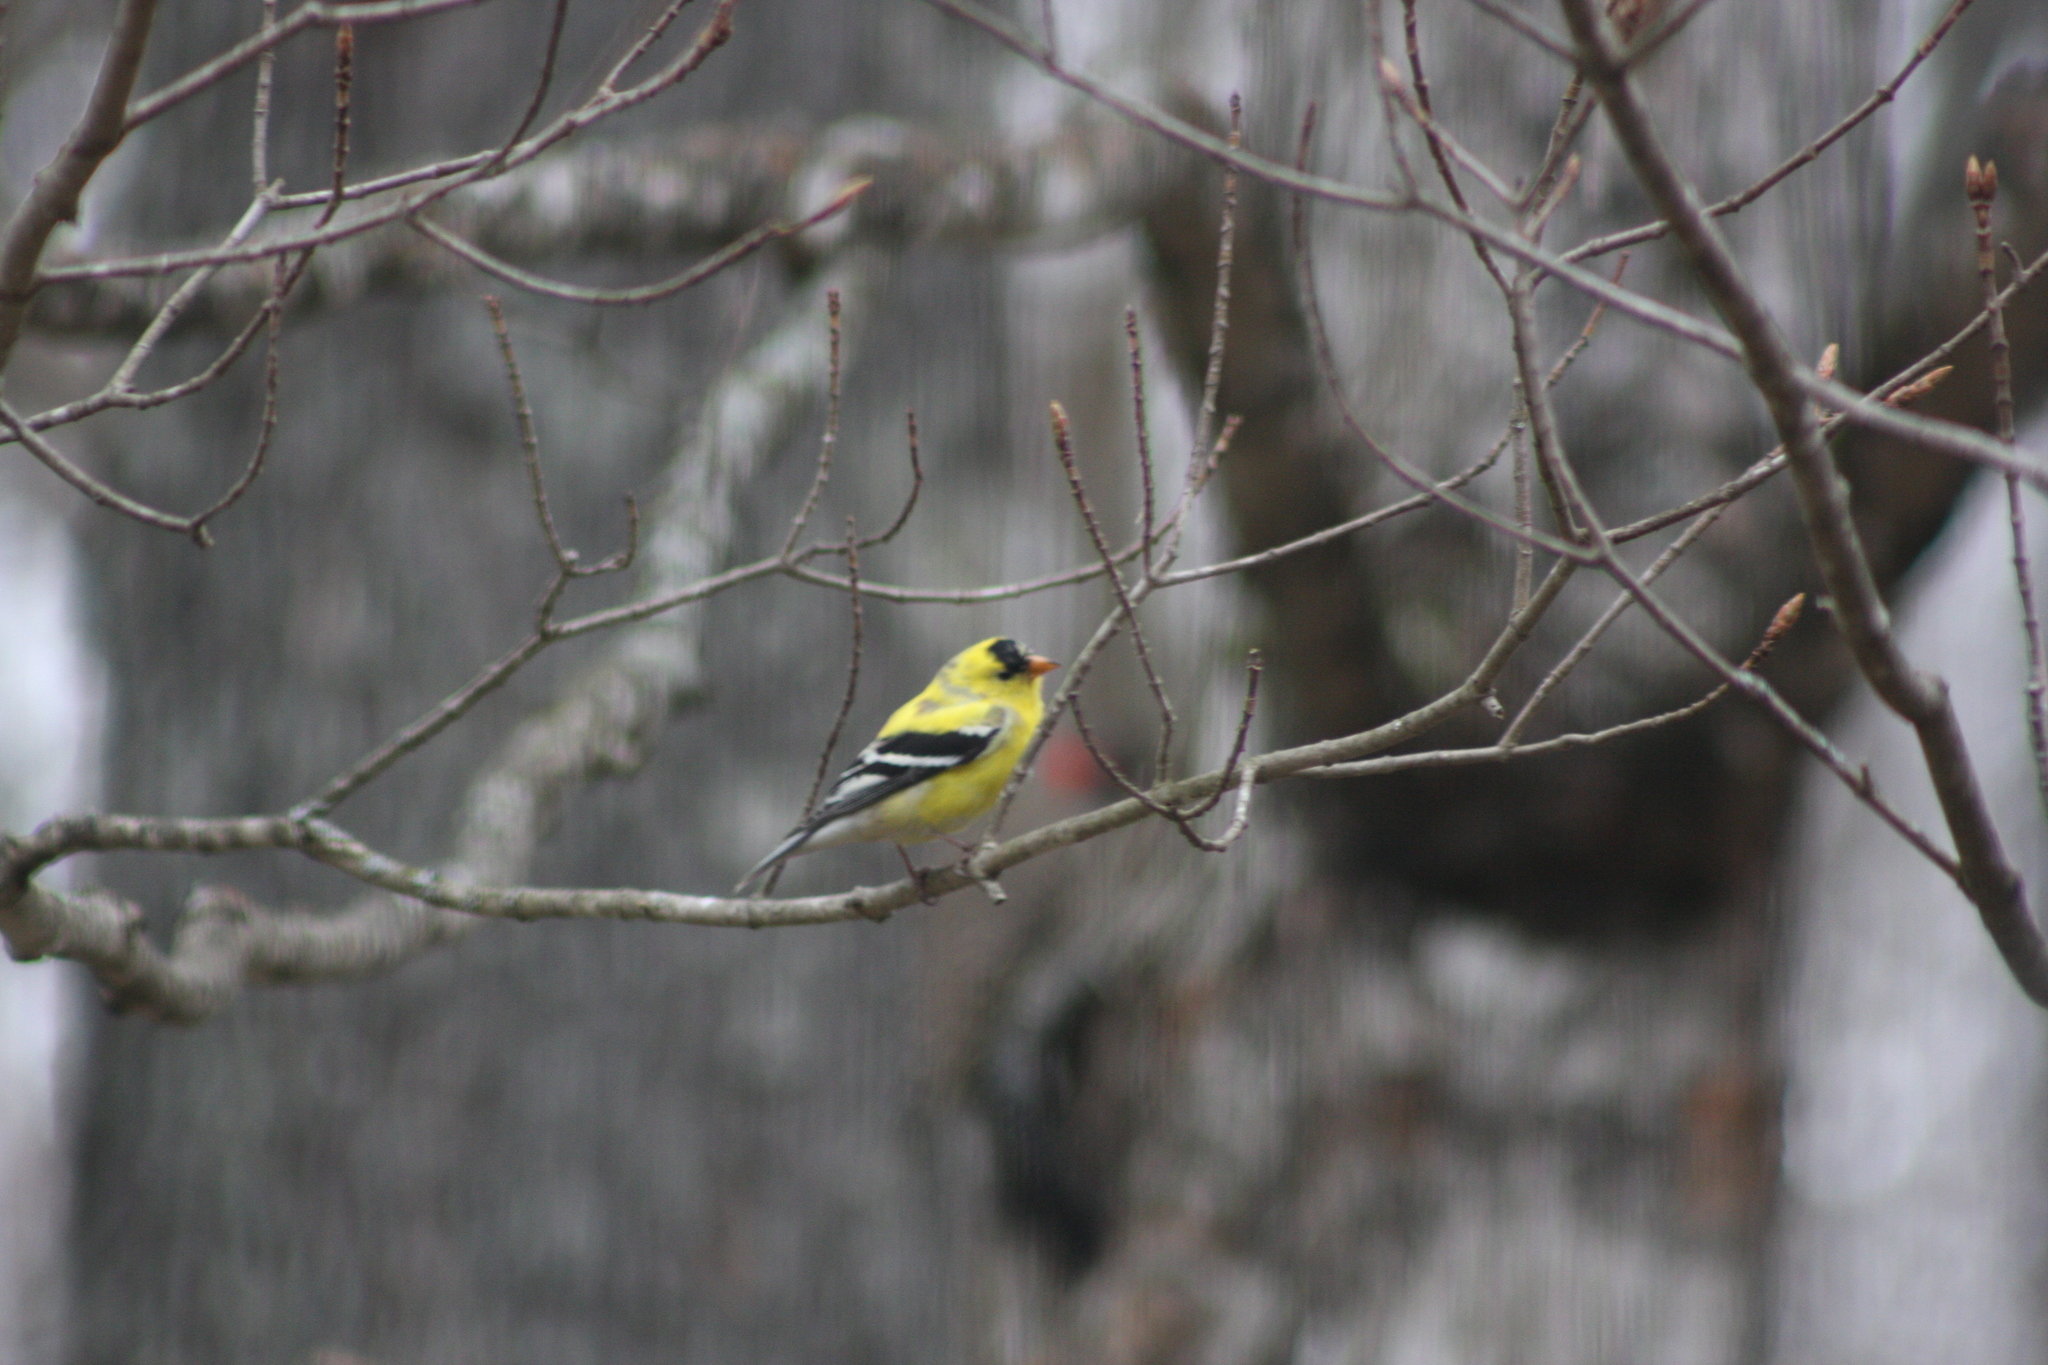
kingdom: Animalia
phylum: Chordata
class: Aves
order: Passeriformes
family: Fringillidae
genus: Spinus
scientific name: Spinus tristis
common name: American goldfinch
